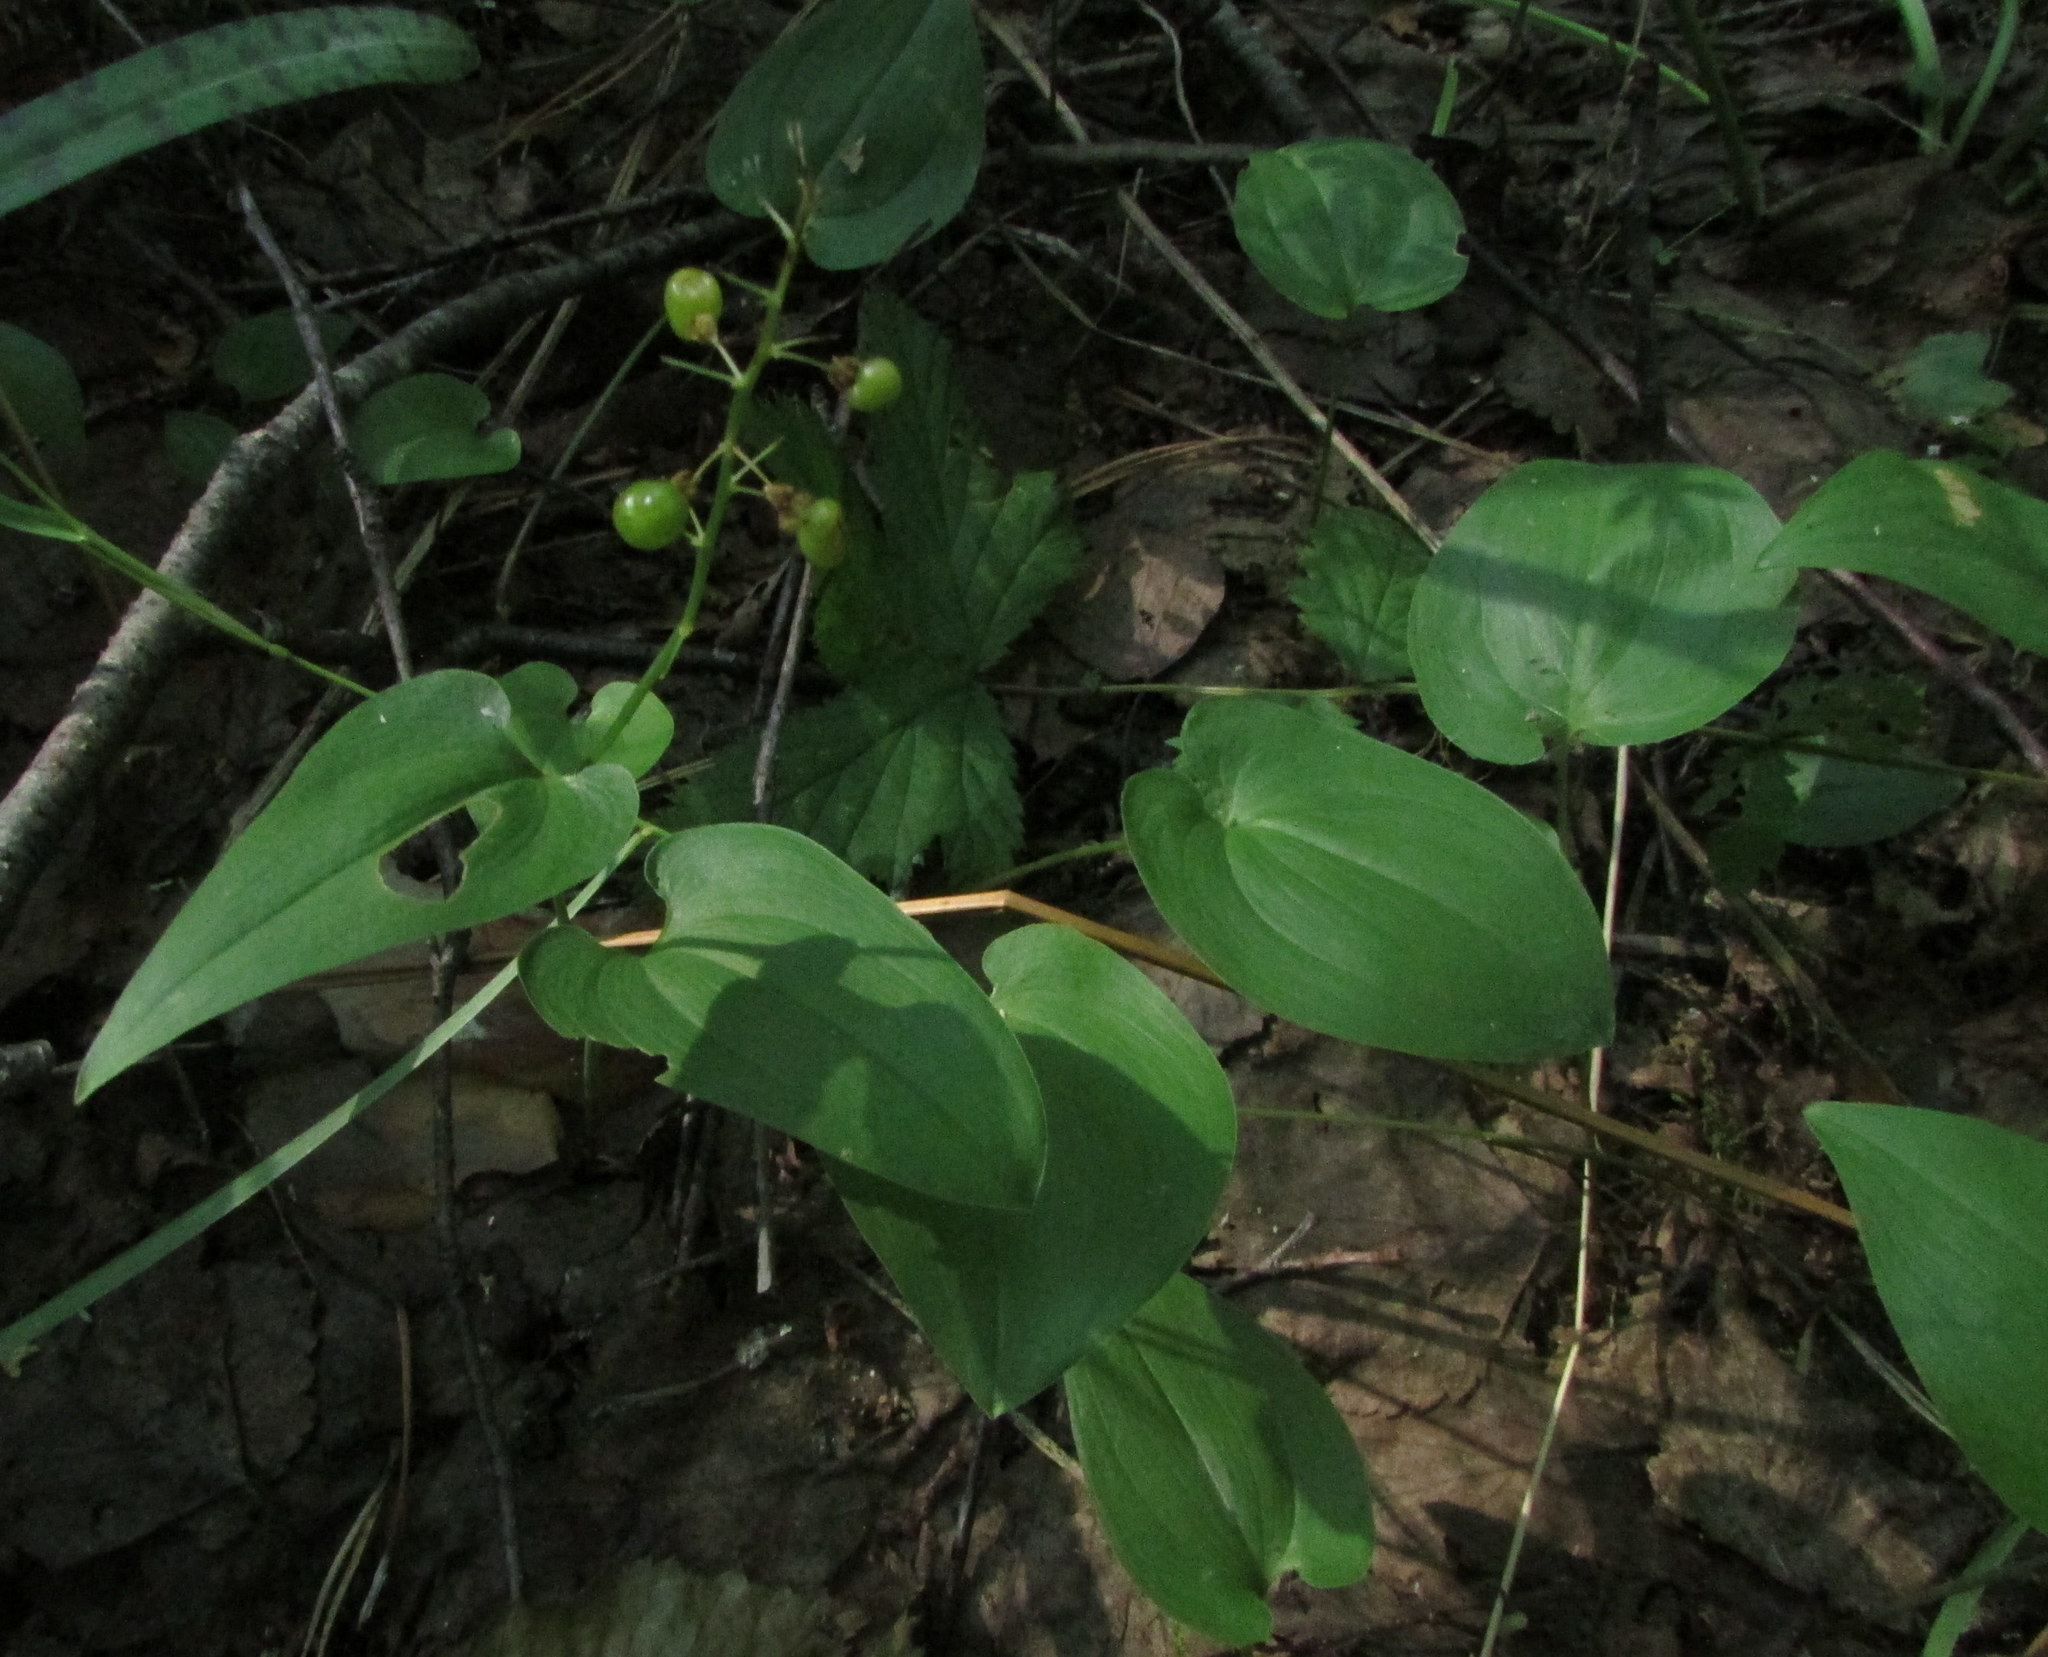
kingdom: Plantae
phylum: Tracheophyta
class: Liliopsida
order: Asparagales
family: Asparagaceae
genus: Maianthemum
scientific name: Maianthemum bifolium
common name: May lily
